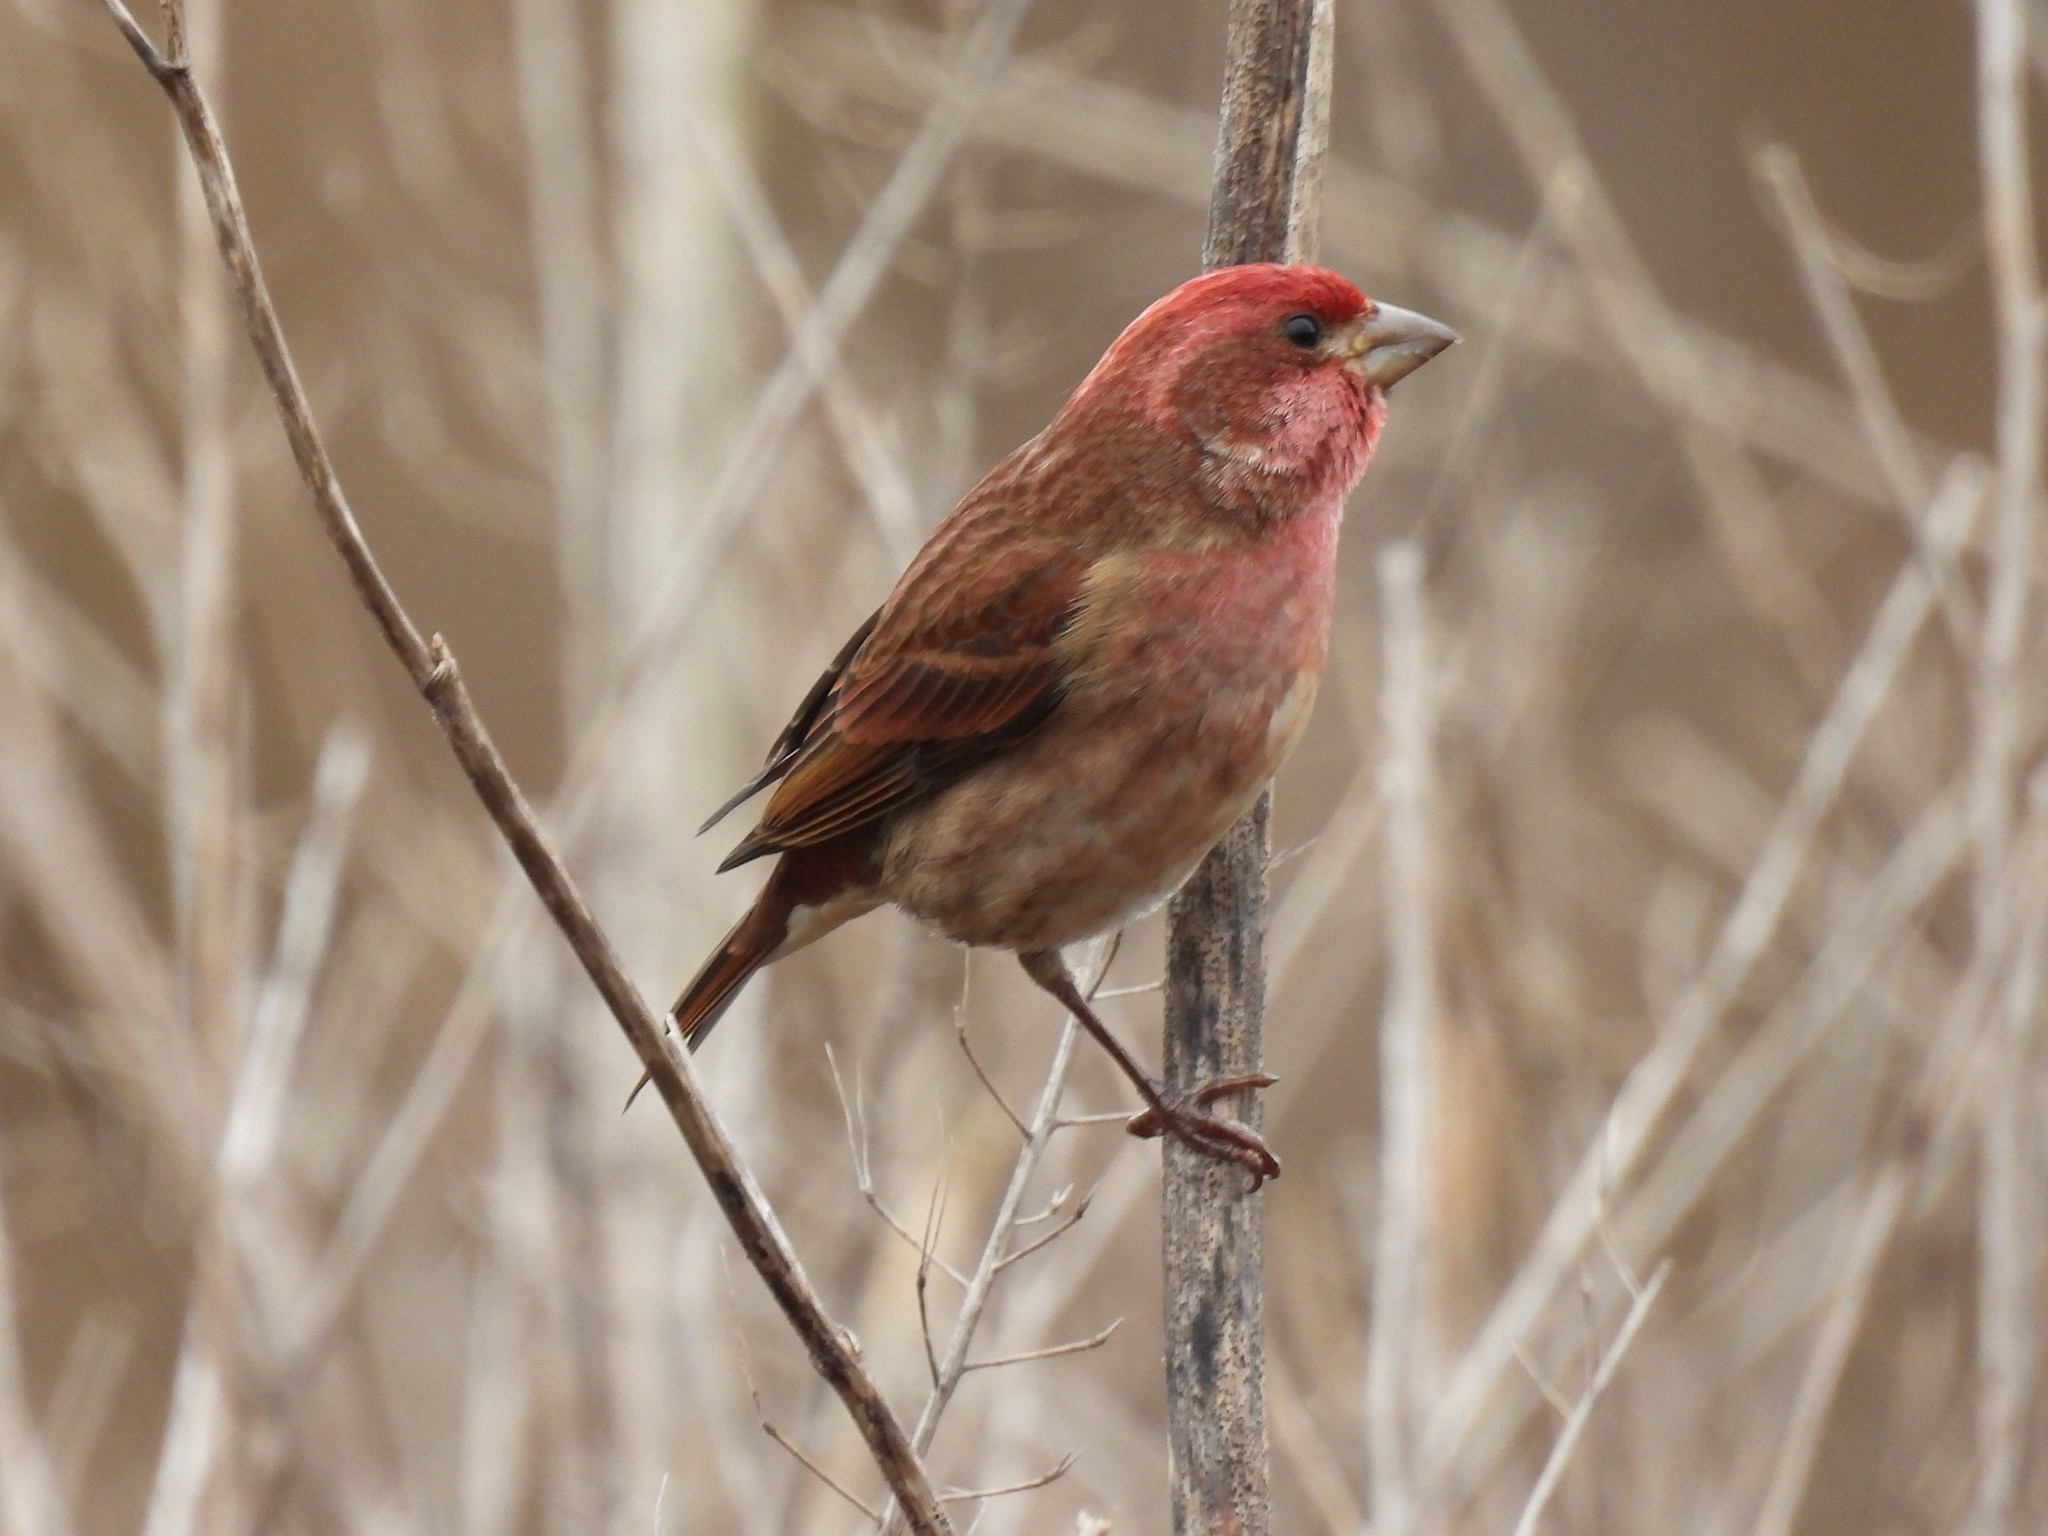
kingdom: Animalia
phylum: Chordata
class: Aves
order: Passeriformes
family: Fringillidae
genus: Haemorhous
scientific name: Haemorhous purpureus
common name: Purple finch
